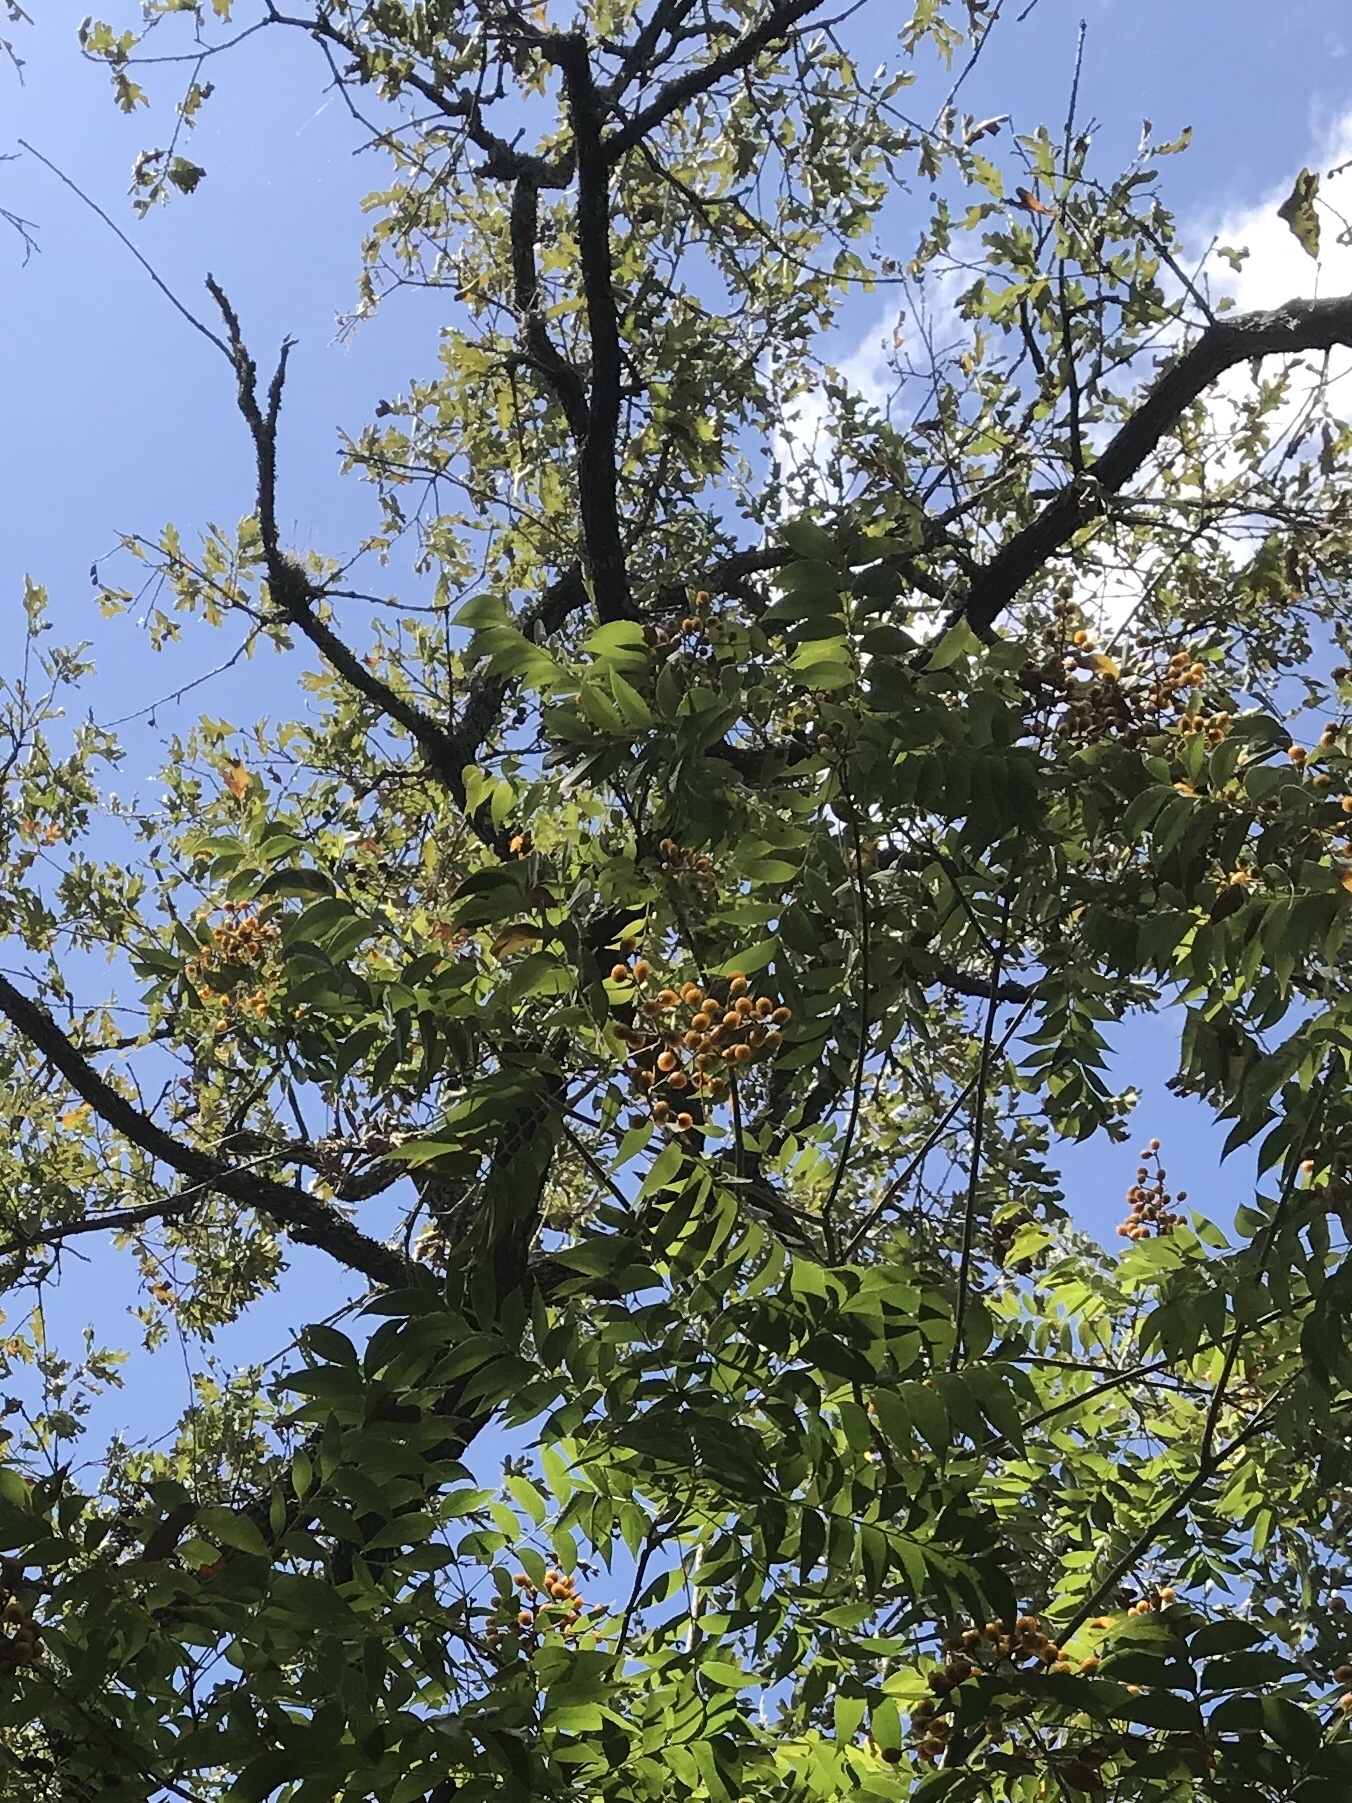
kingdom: Plantae
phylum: Tracheophyta
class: Magnoliopsida
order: Sapindales
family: Sapindaceae
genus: Sapindus
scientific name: Sapindus drummondii
